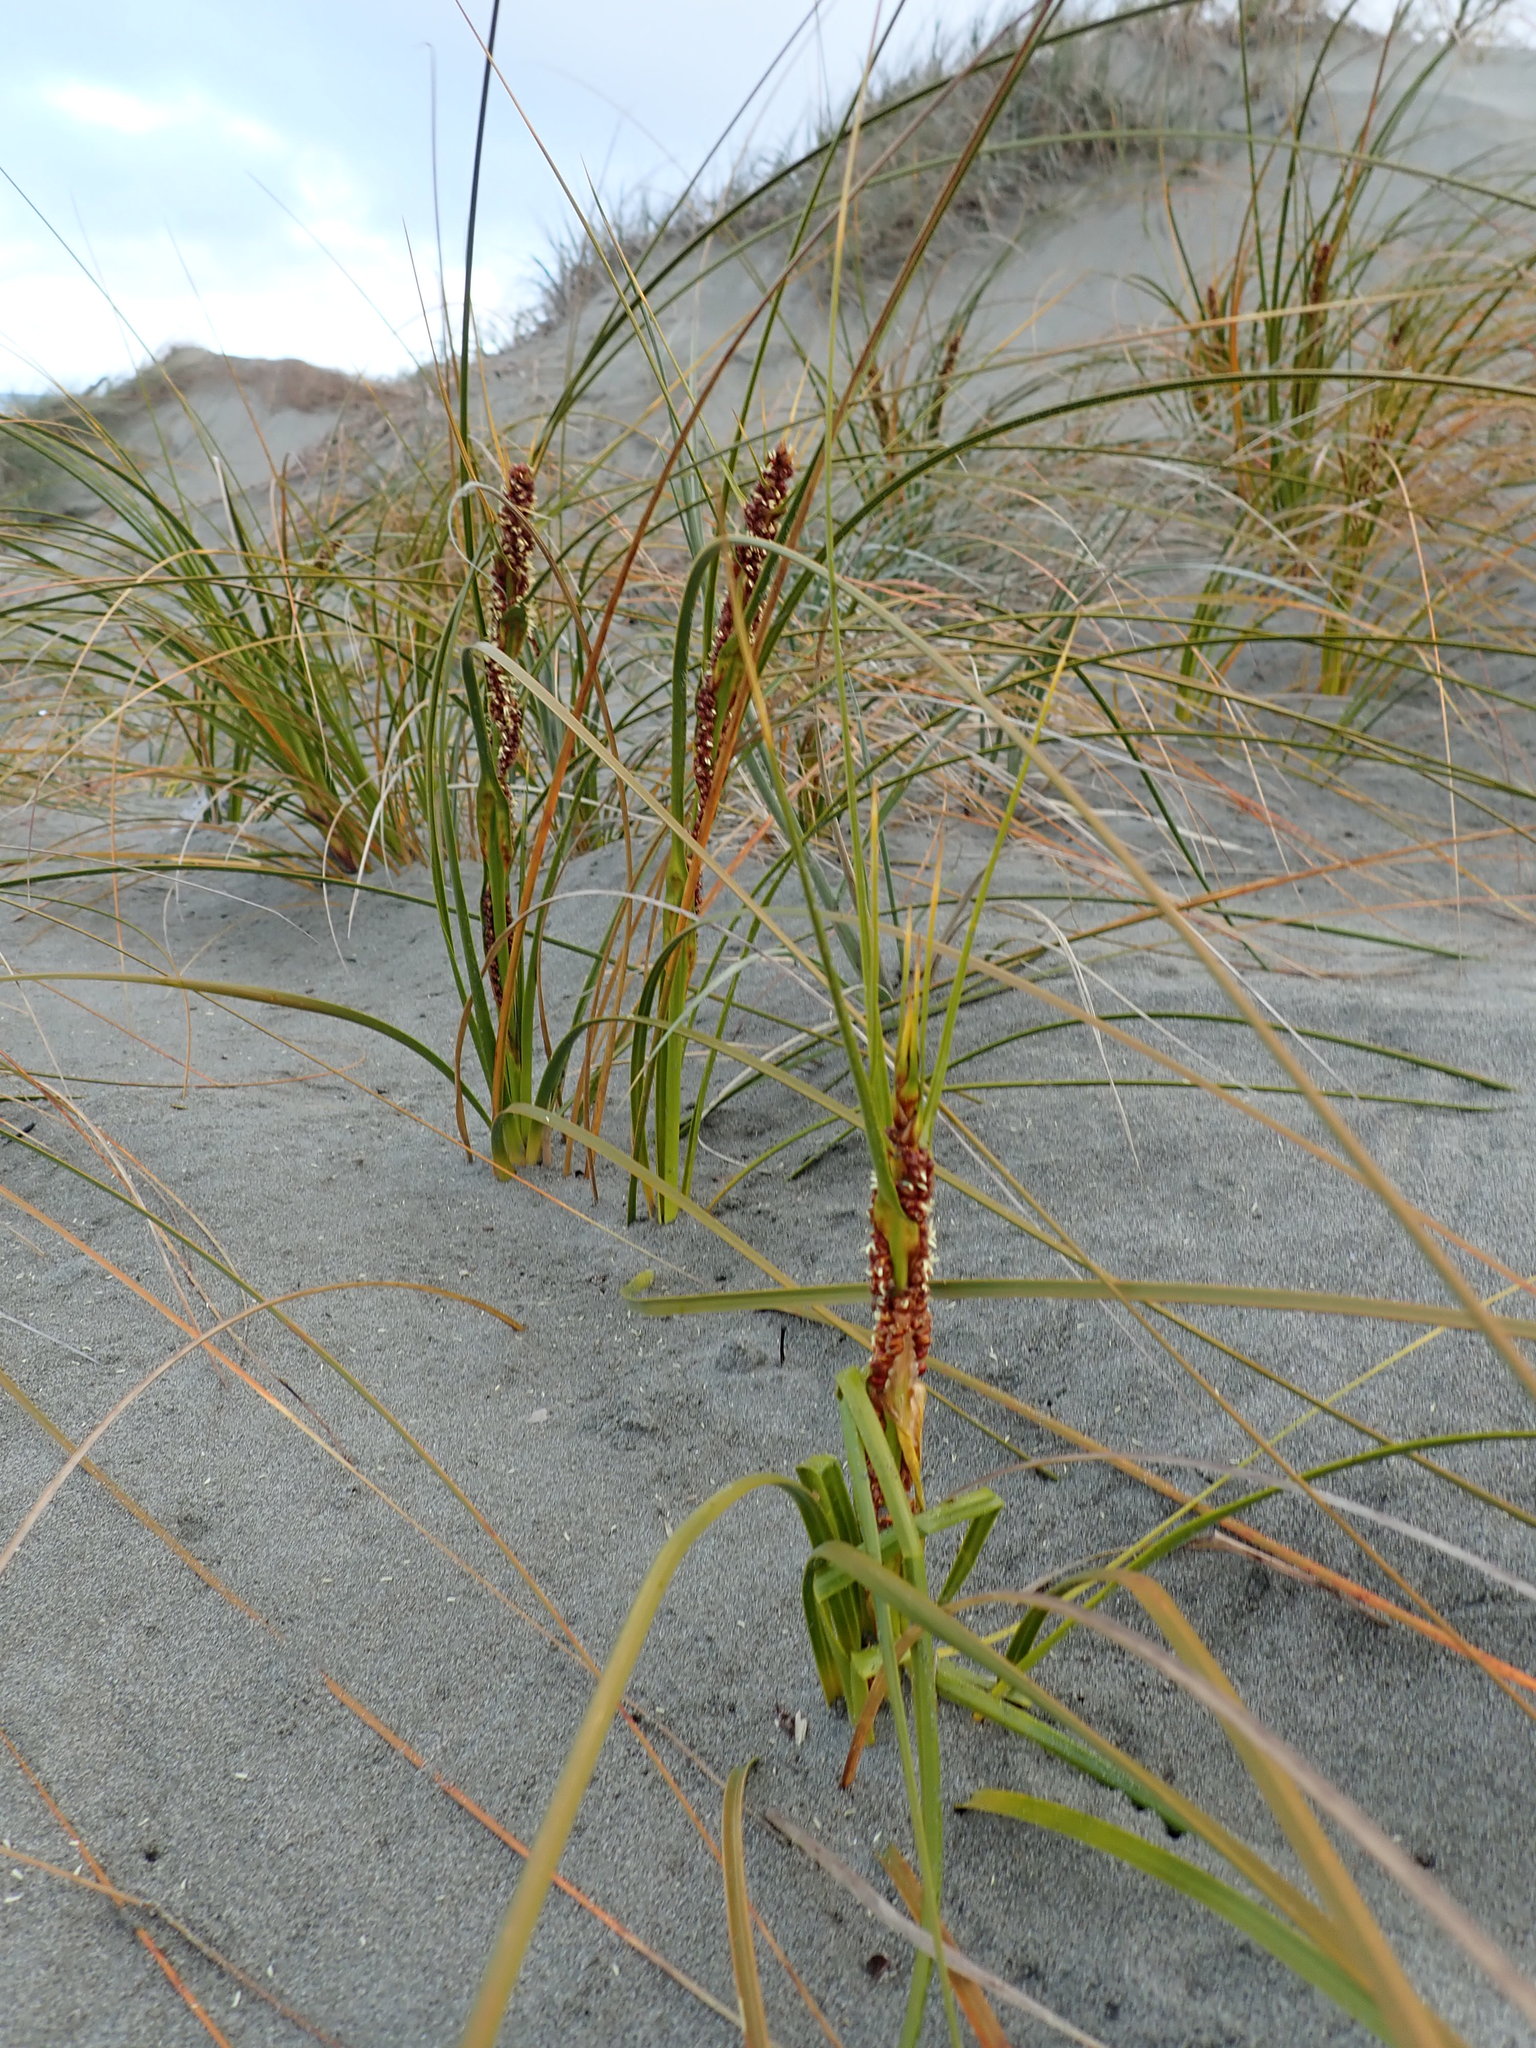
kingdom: Plantae
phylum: Tracheophyta
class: Liliopsida
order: Poales
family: Cyperaceae
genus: Ficinia
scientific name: Ficinia spiralis
